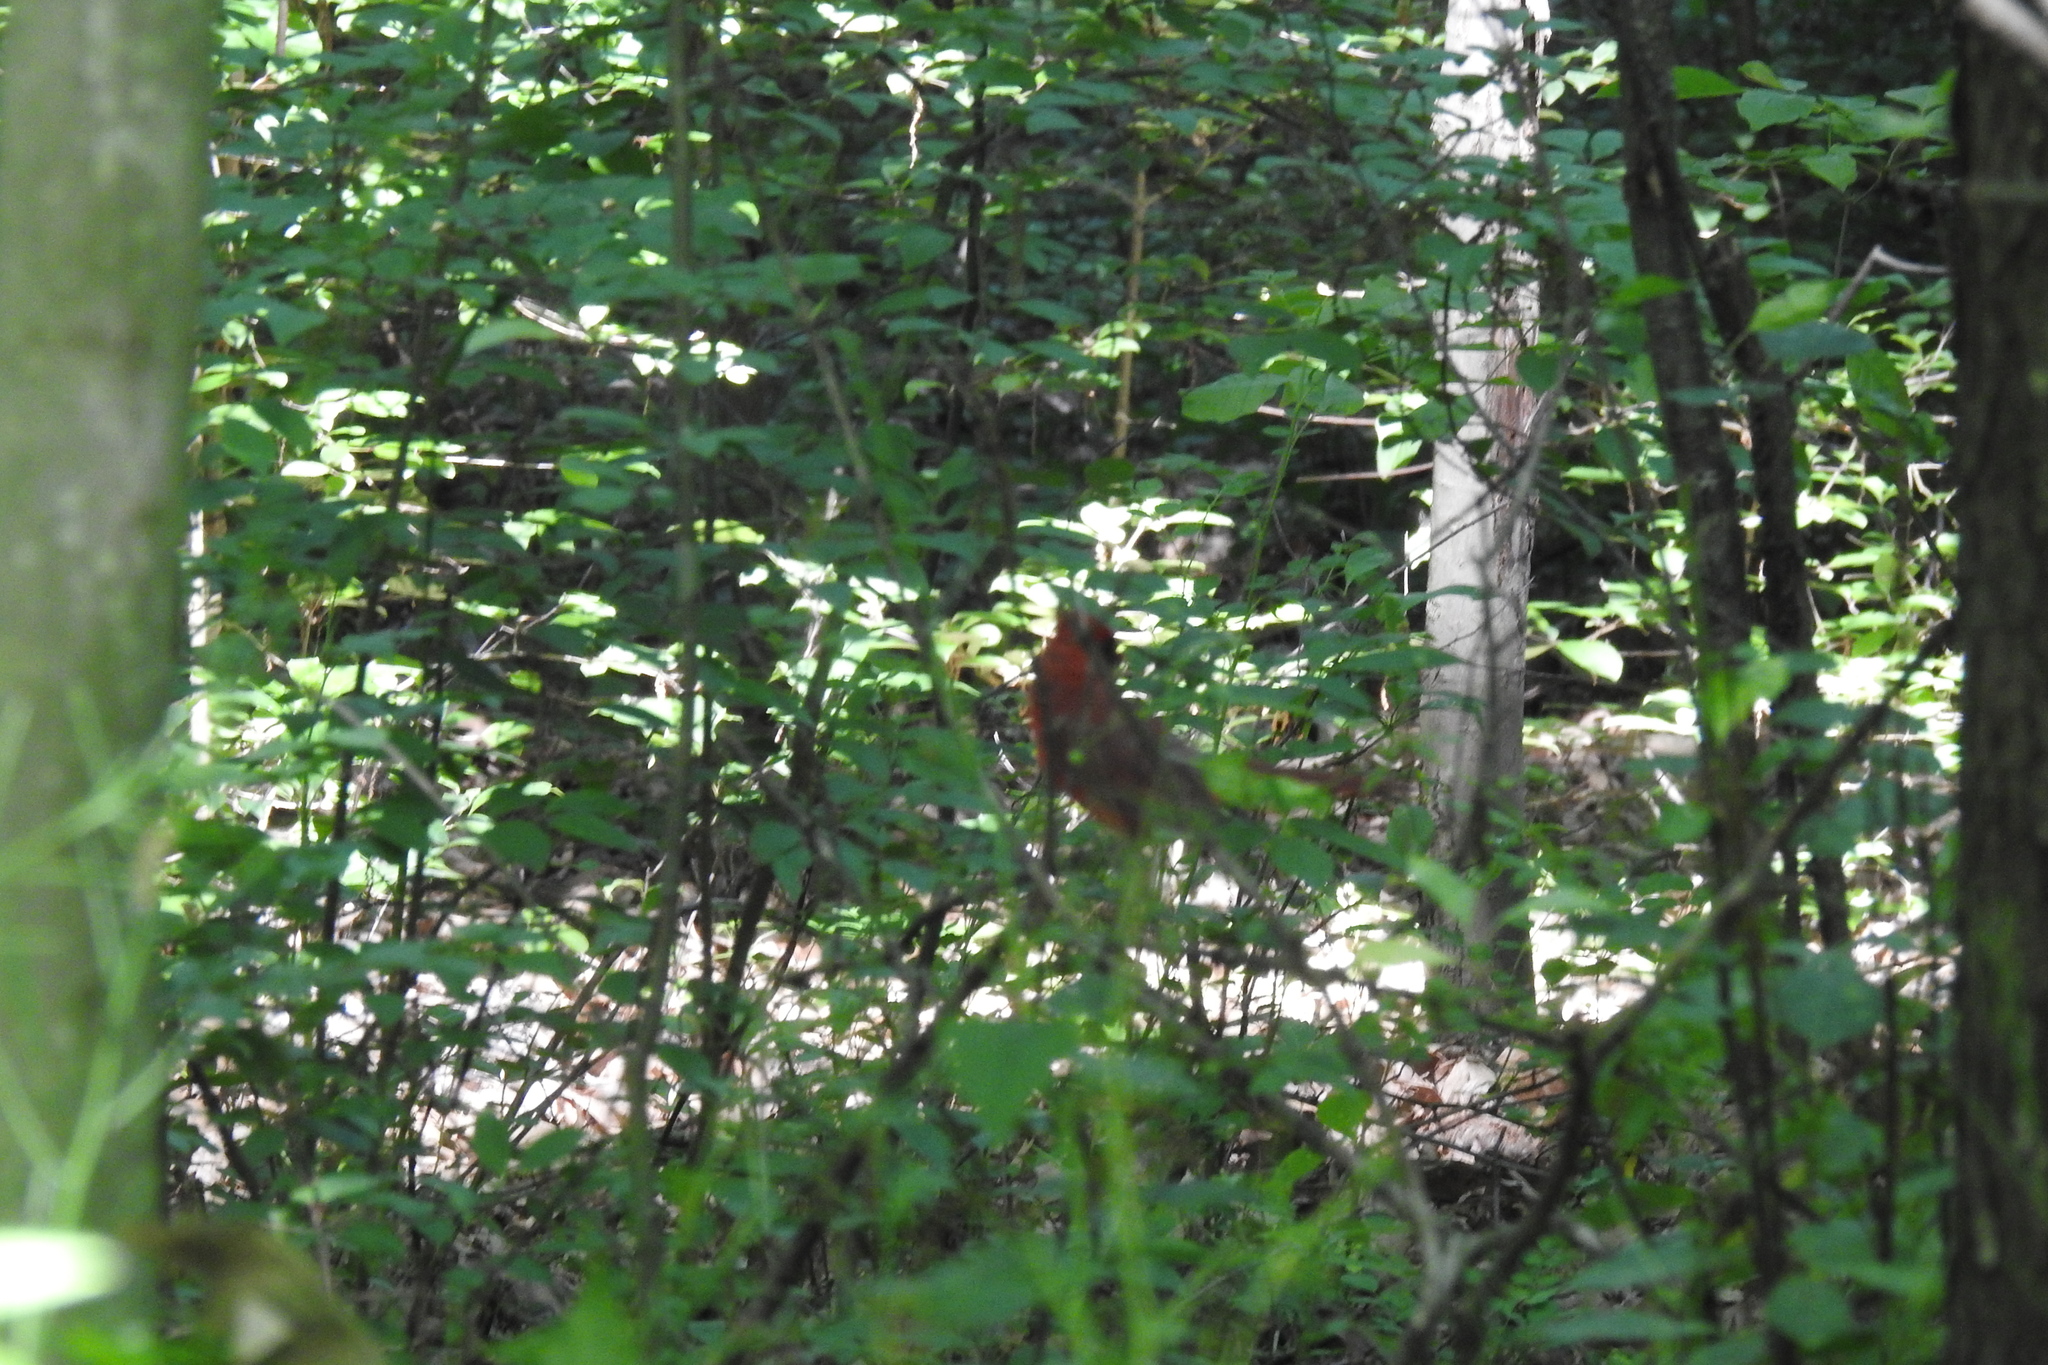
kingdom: Animalia
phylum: Chordata
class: Aves
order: Passeriformes
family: Cardinalidae
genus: Cardinalis
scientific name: Cardinalis cardinalis
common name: Northern cardinal
